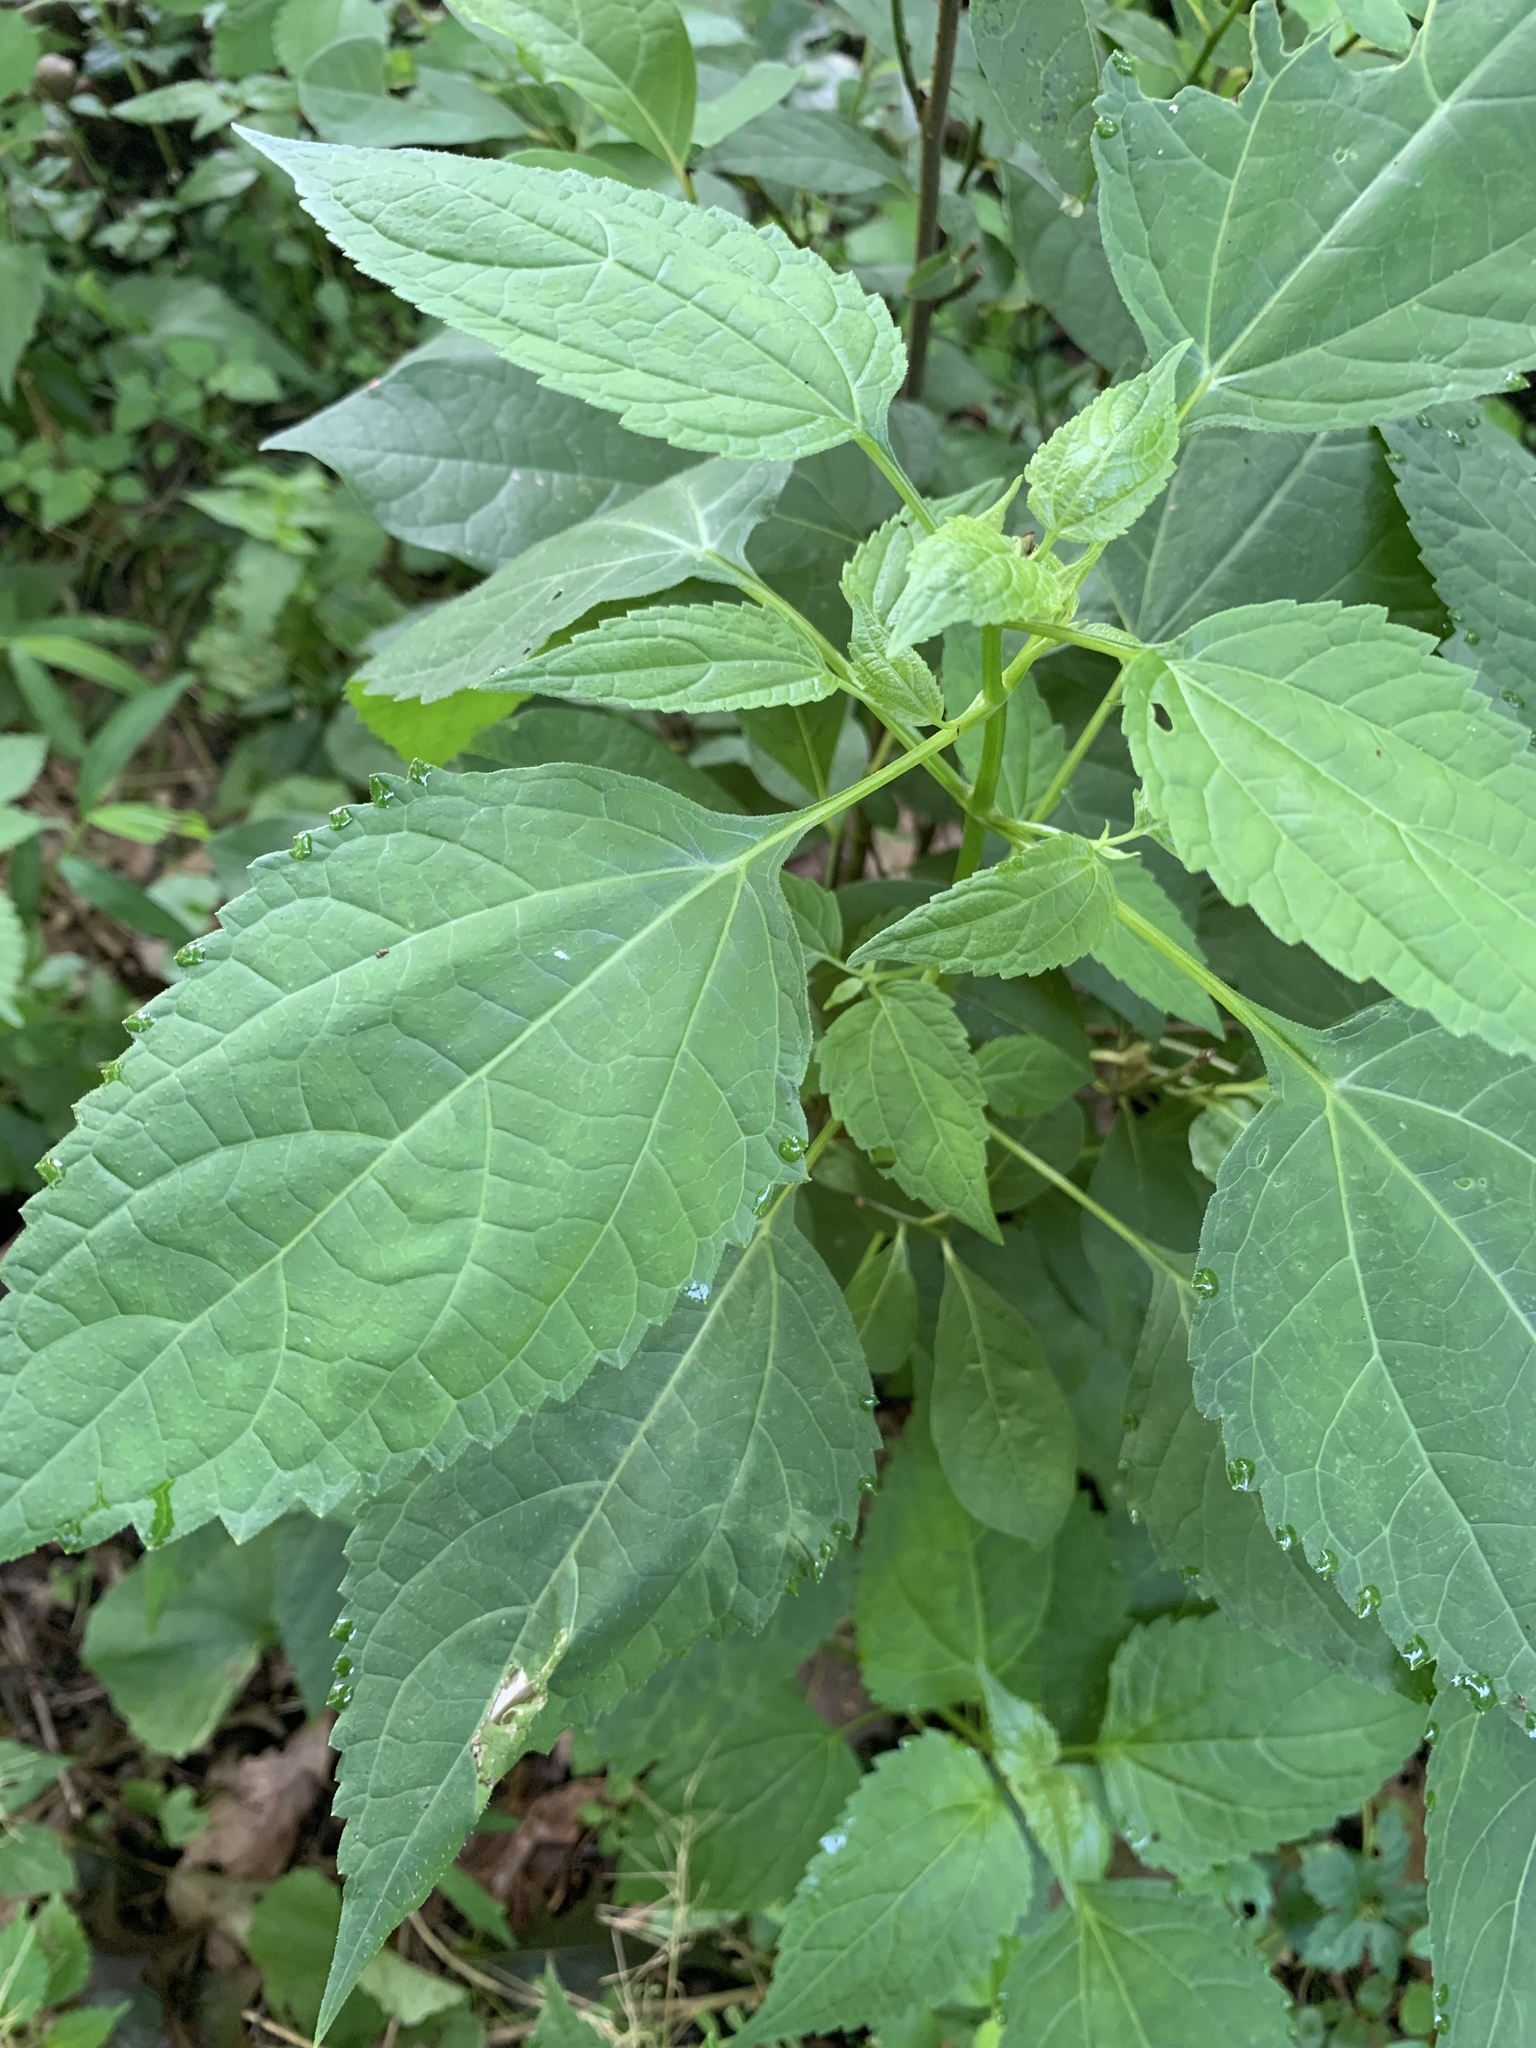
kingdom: Plantae
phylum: Tracheophyta
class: Magnoliopsida
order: Asterales
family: Asteraceae
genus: Ageratina
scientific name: Ageratina altissima
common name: White snakeroot
